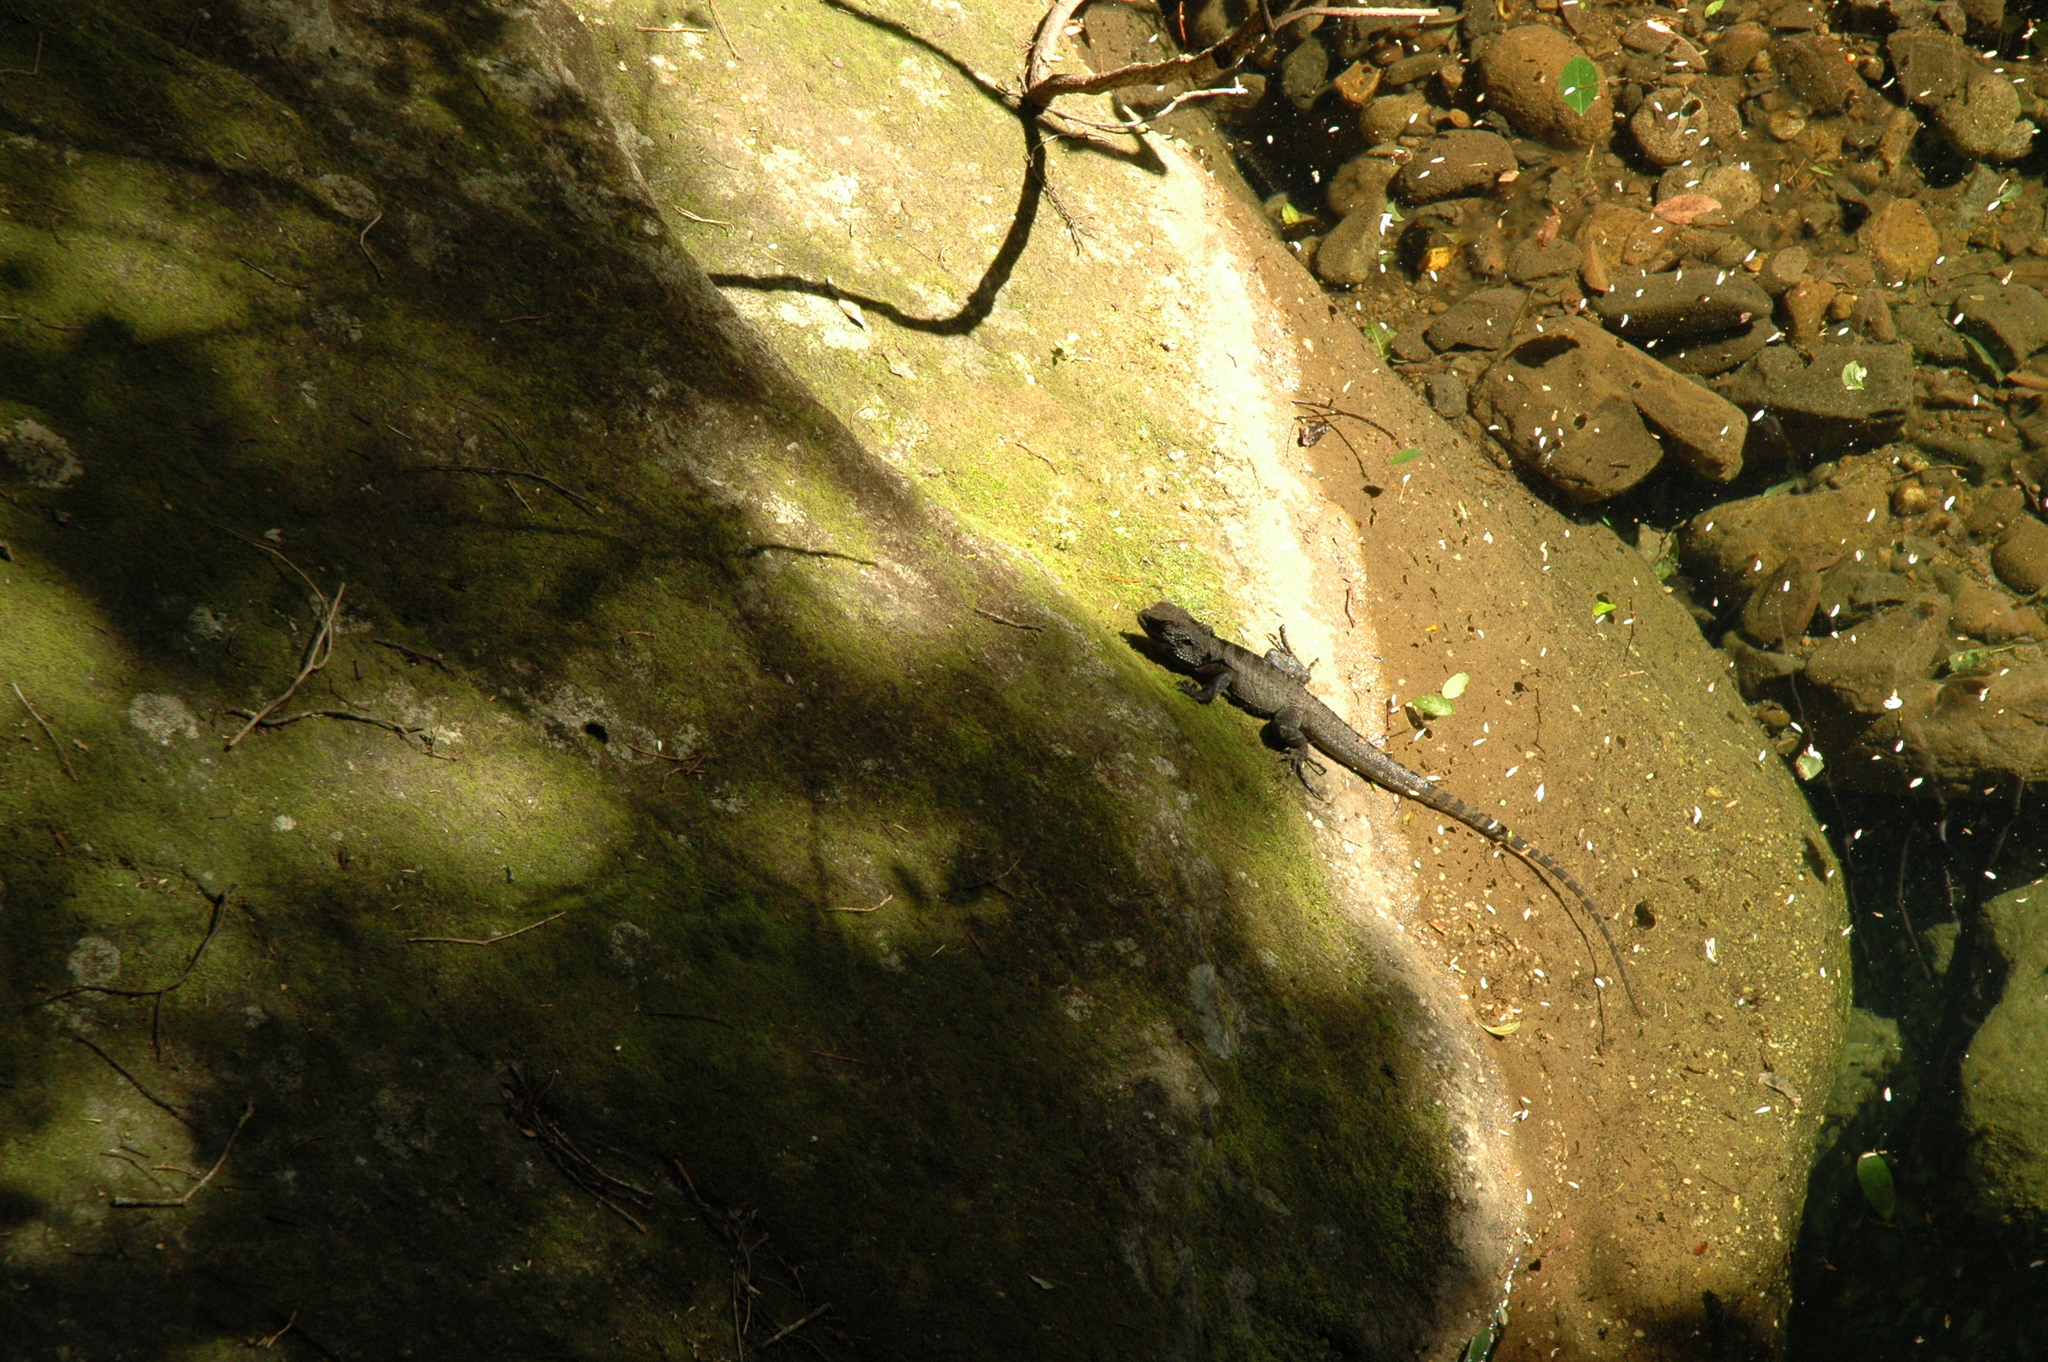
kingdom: Animalia
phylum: Chordata
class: Squamata
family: Agamidae
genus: Intellagama
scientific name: Intellagama lesueurii
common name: Eastern water dragon
